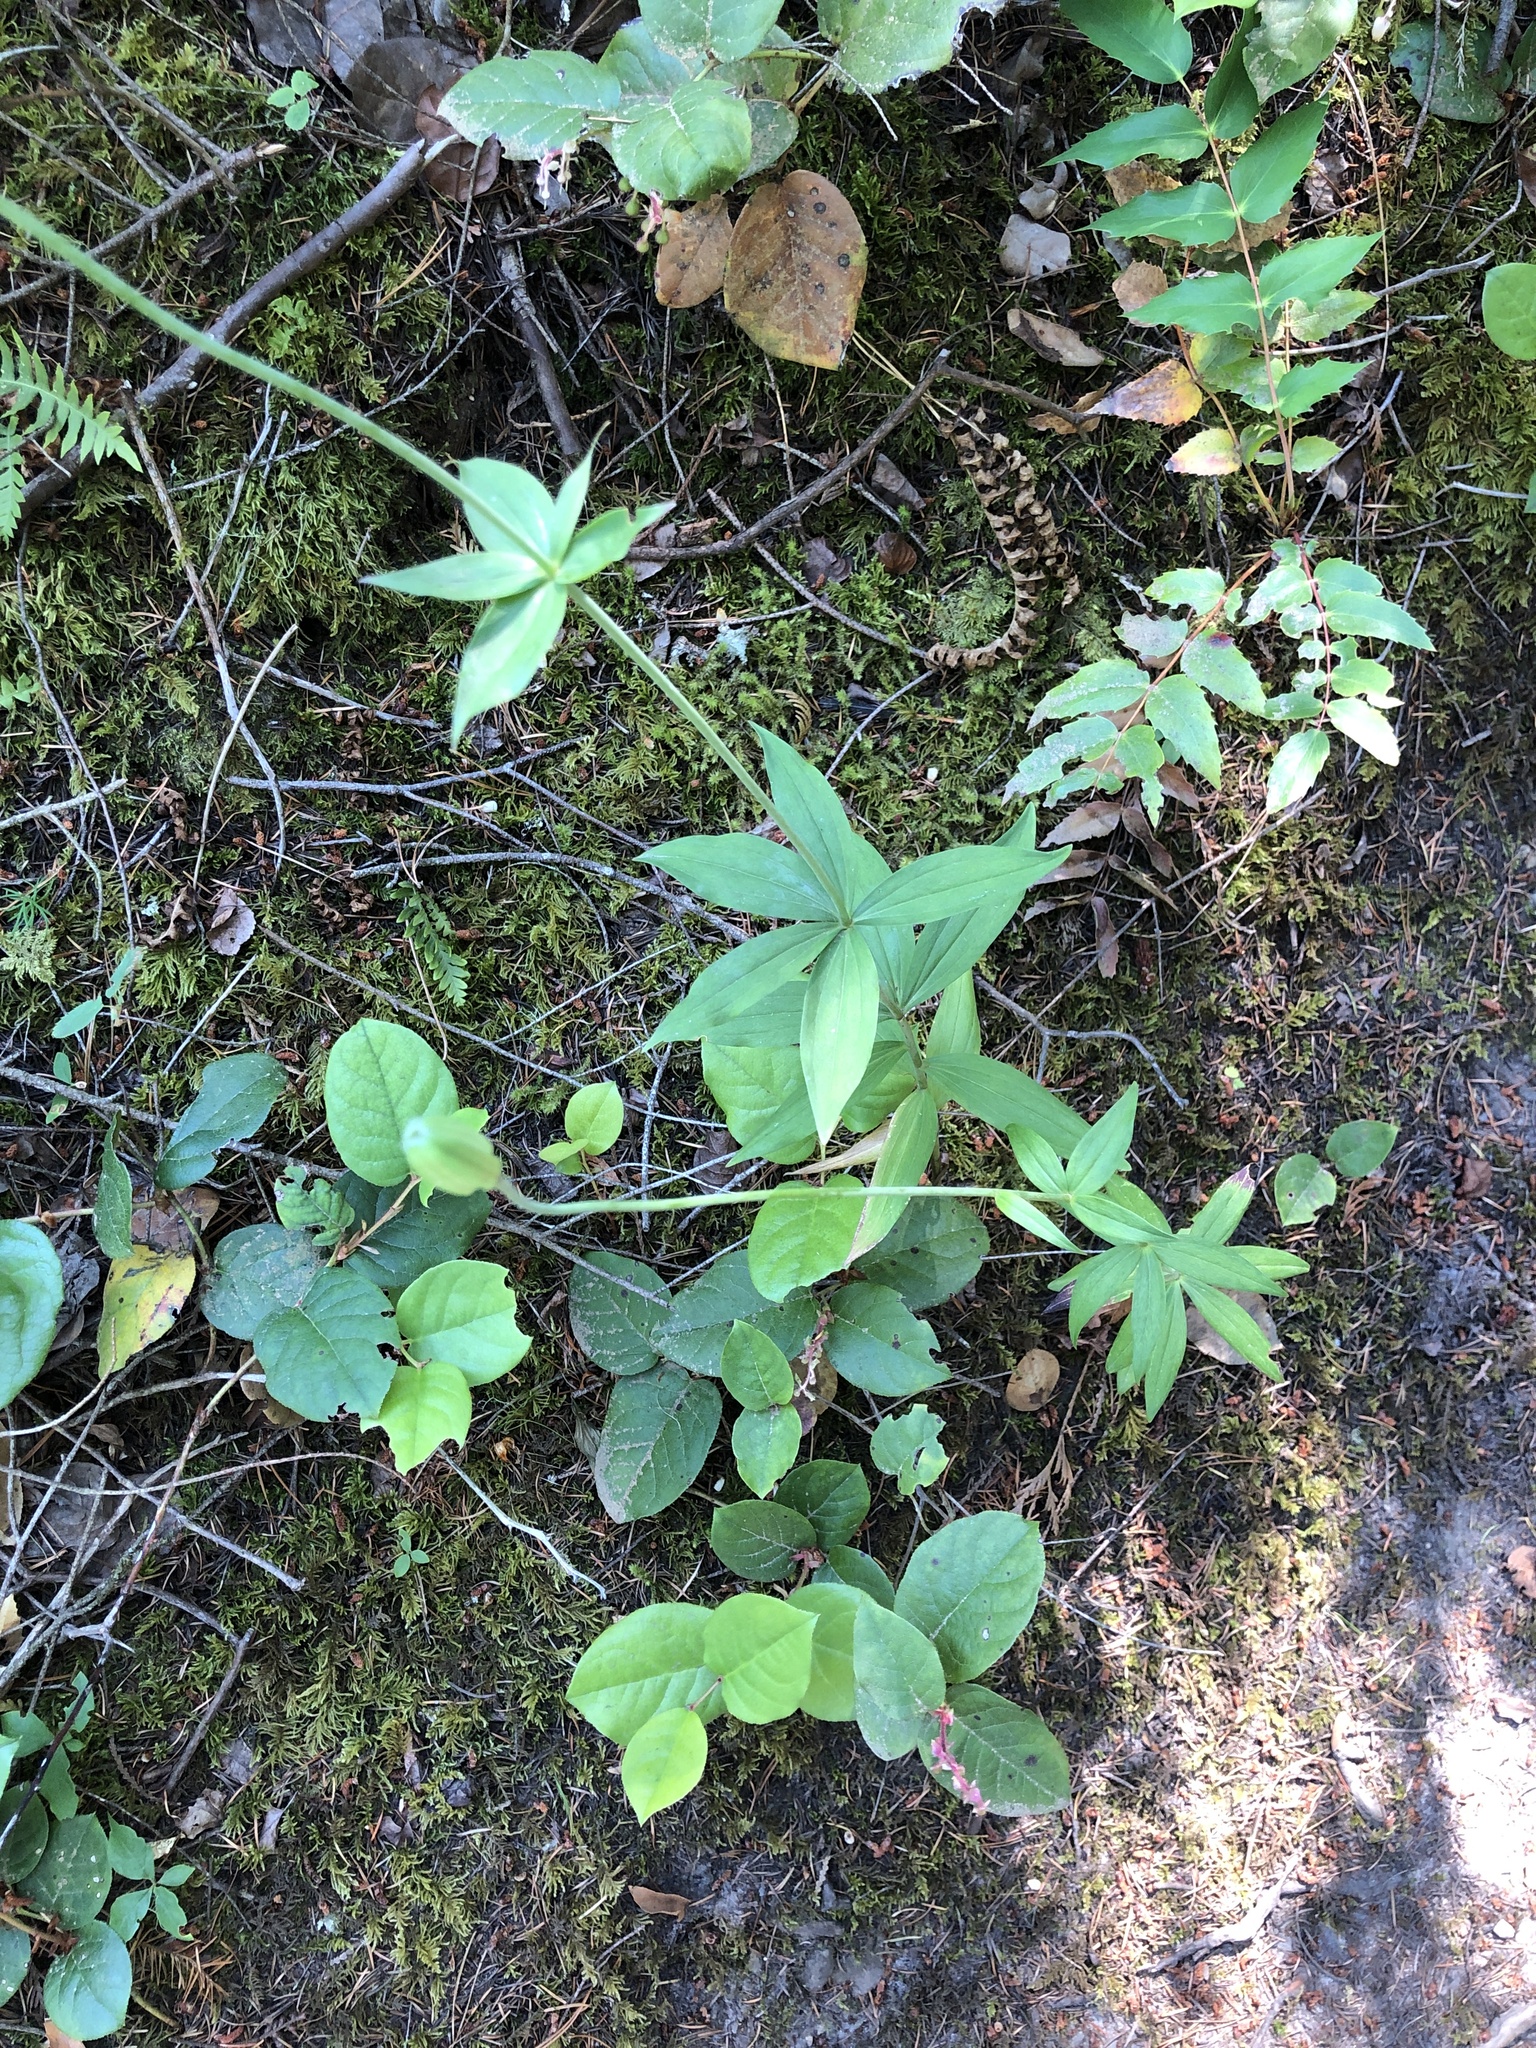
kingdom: Plantae
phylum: Tracheophyta
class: Liliopsida
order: Liliales
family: Liliaceae
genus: Lilium
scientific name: Lilium columbianum
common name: Columbia lily
